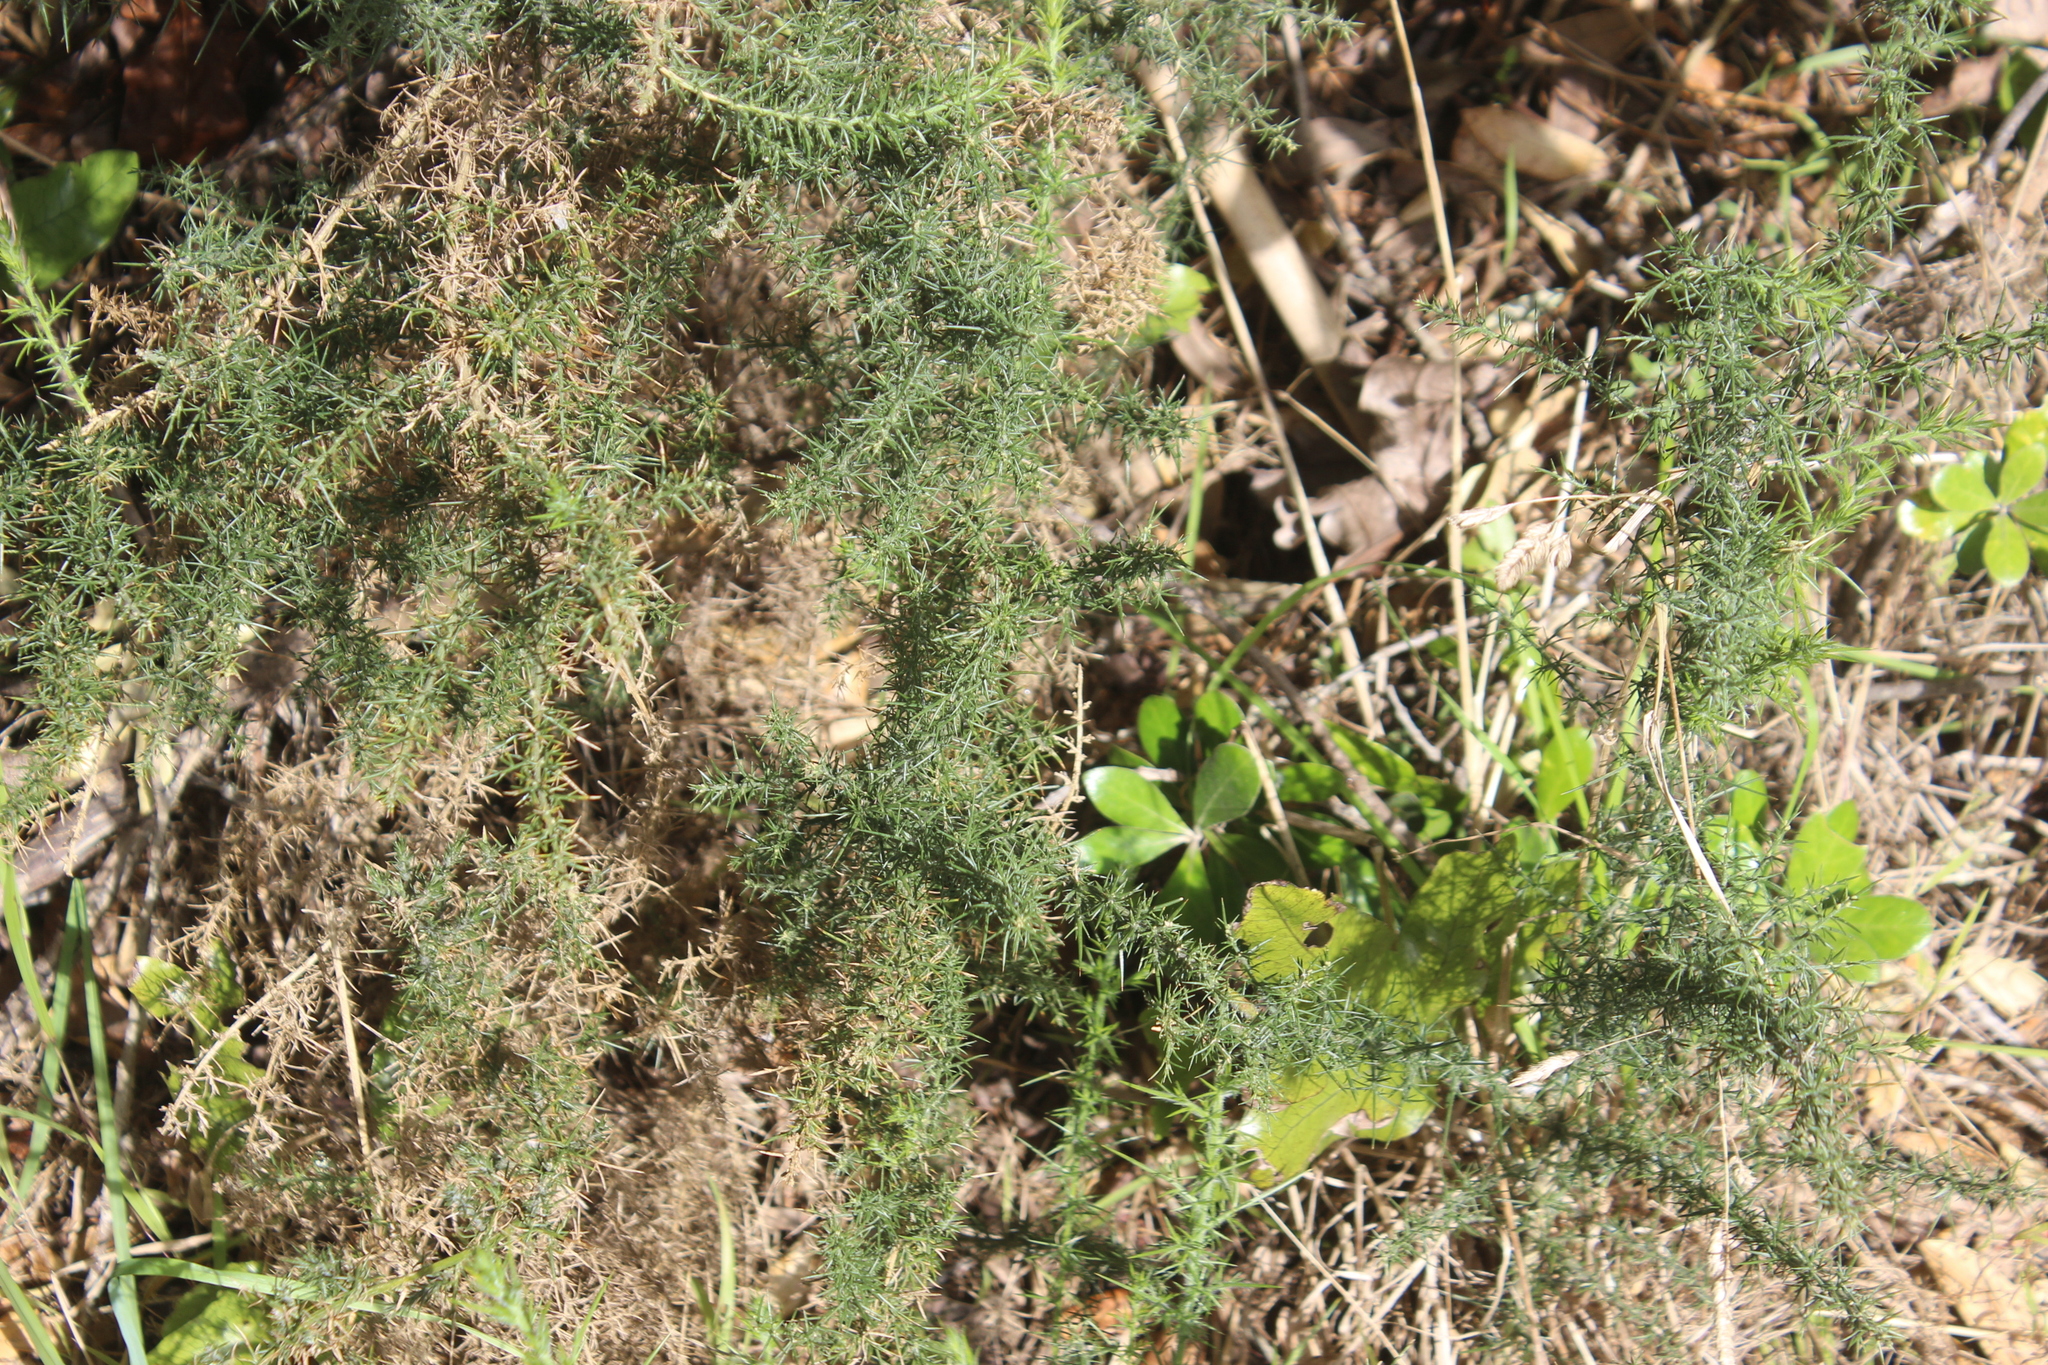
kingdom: Plantae
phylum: Tracheophyta
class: Magnoliopsida
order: Fabales
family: Fabaceae
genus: Ulex
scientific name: Ulex europaeus
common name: Common gorse
